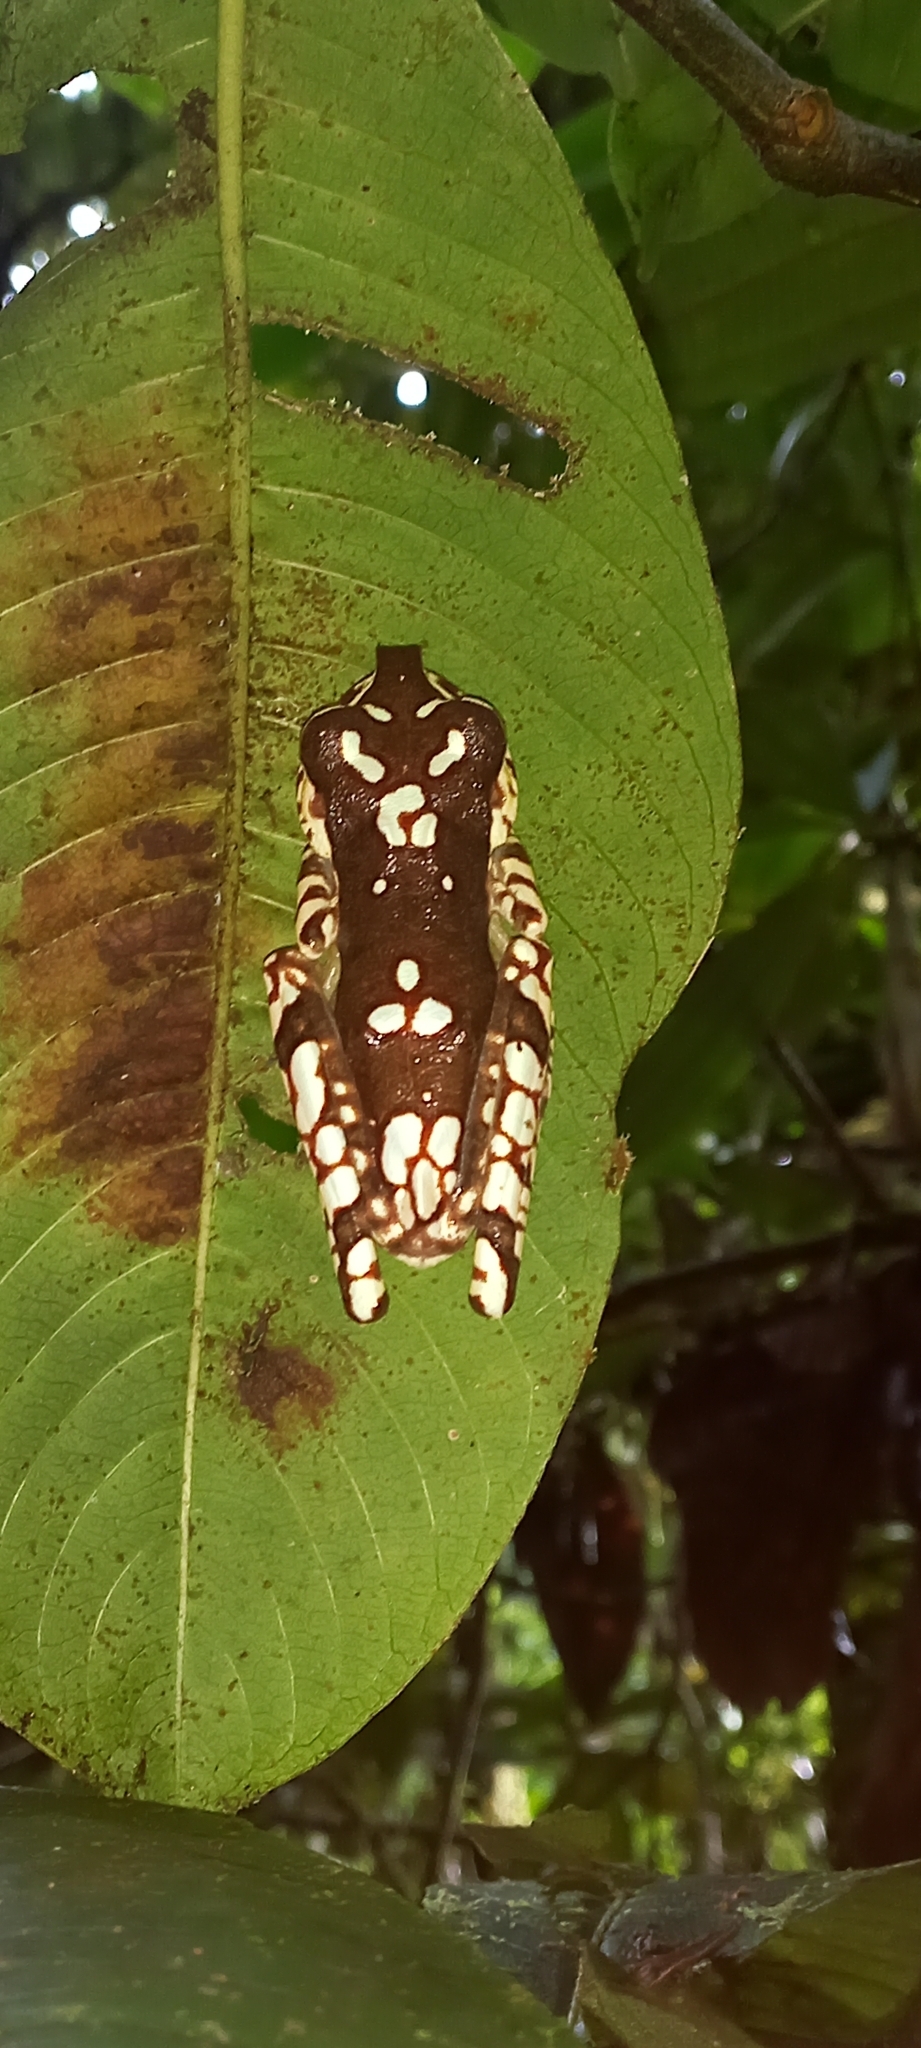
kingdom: Animalia
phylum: Chordata
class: Amphibia
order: Anura
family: Hylidae
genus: Boana
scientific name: Boana picturata
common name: Imbabura treefrog
